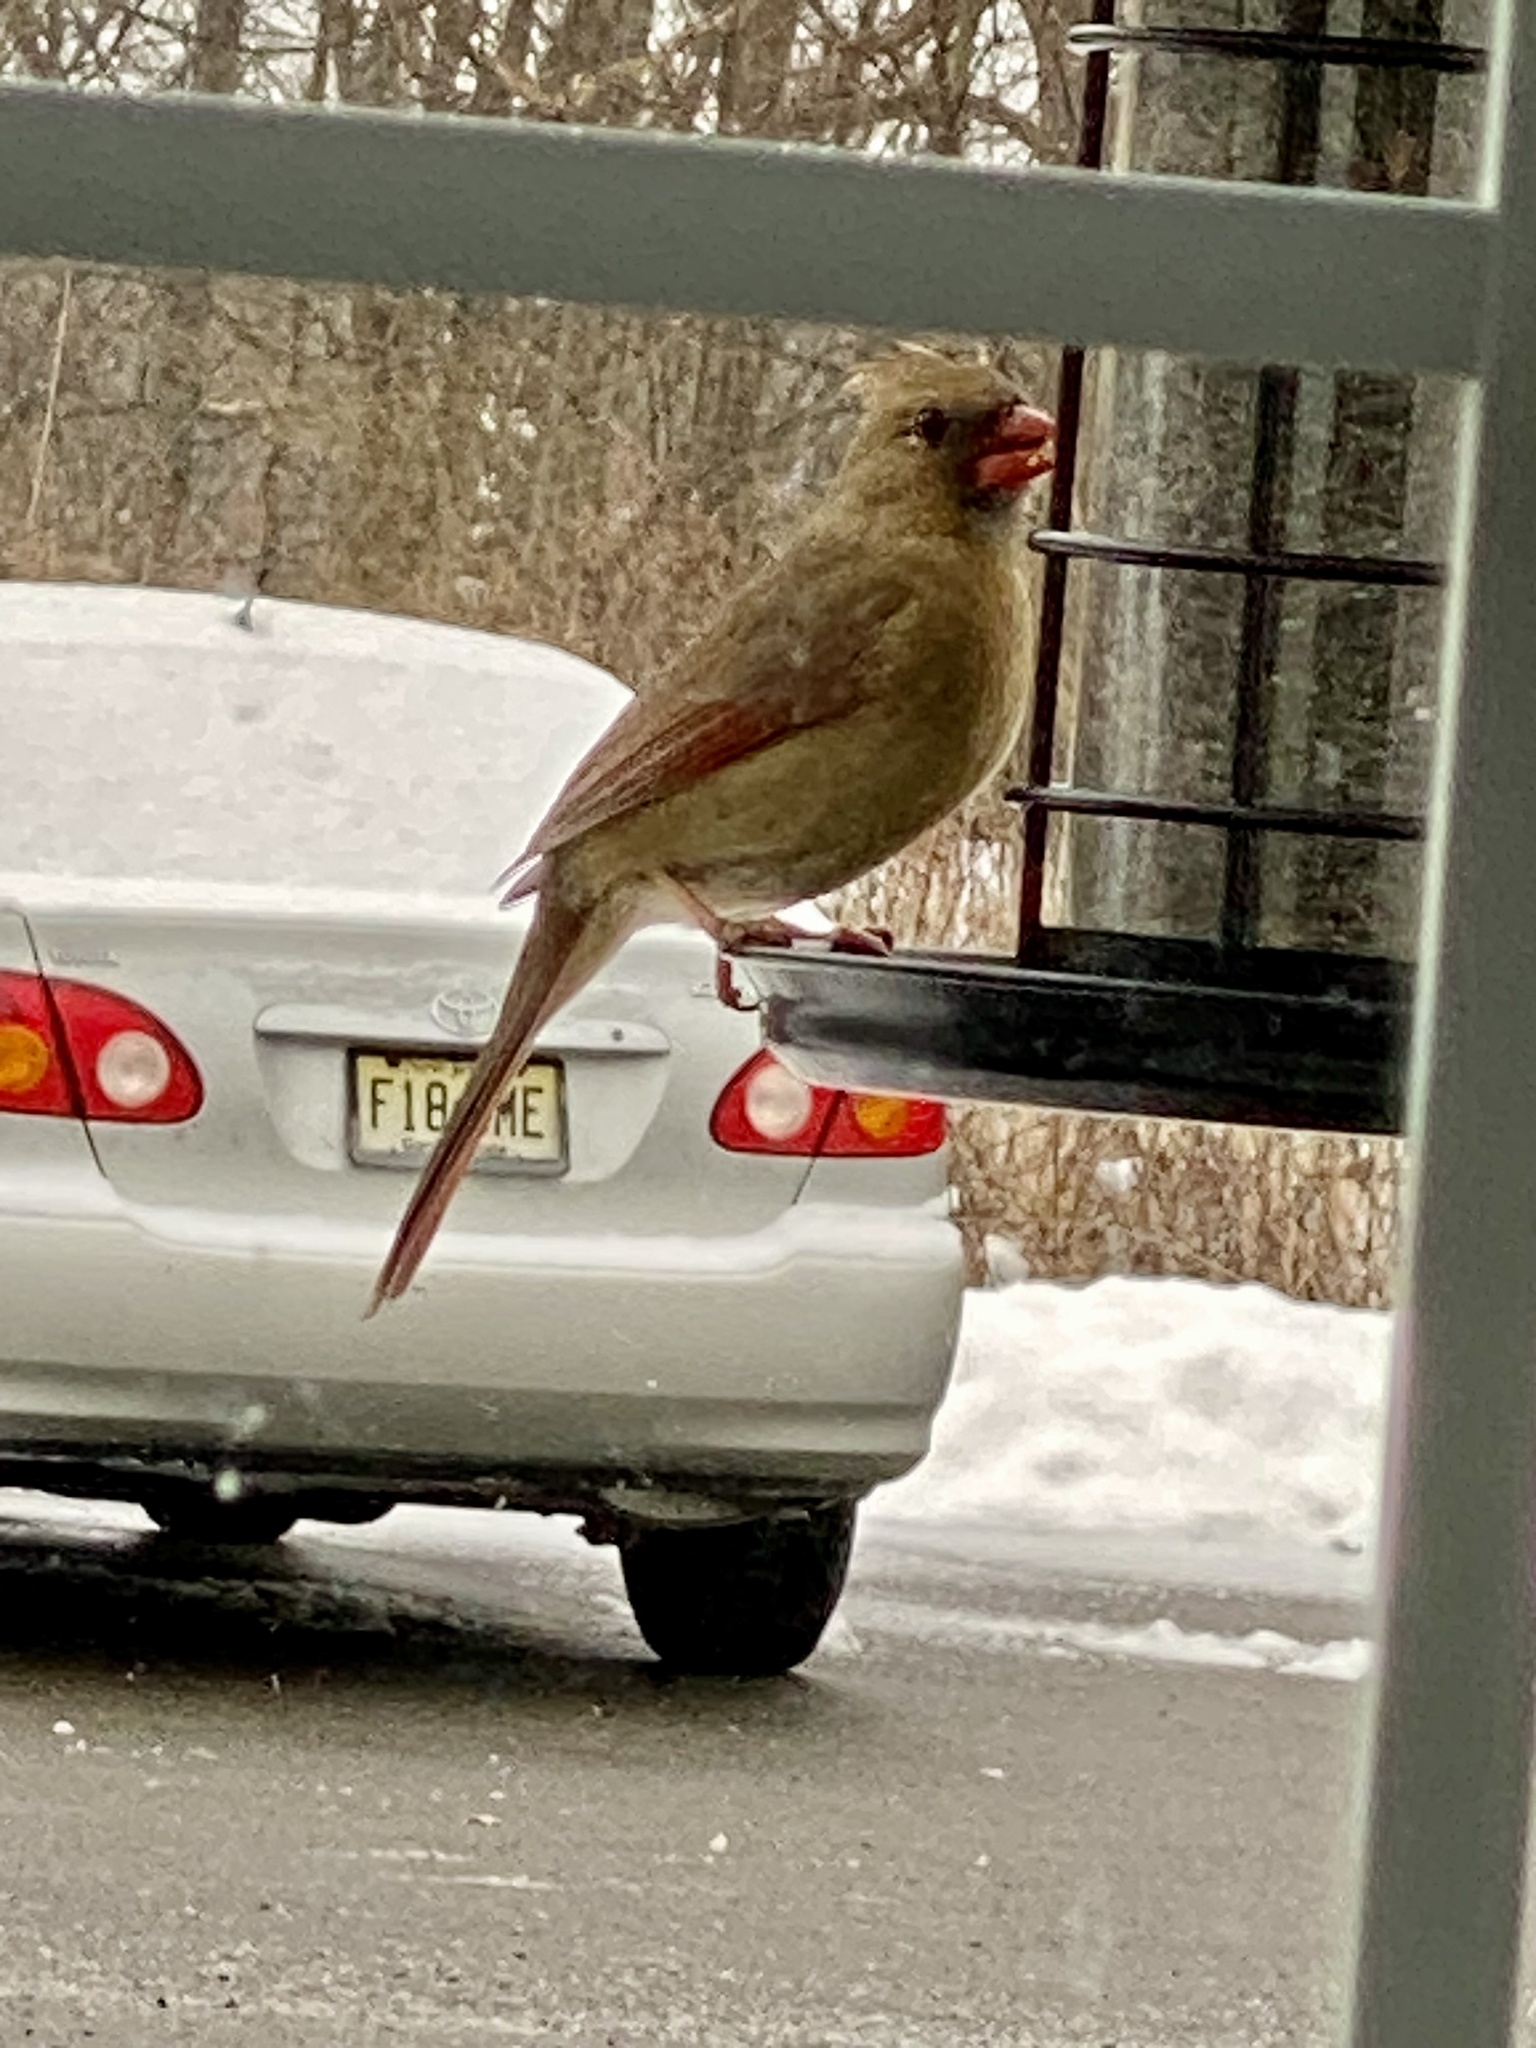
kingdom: Animalia
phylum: Chordata
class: Aves
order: Passeriformes
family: Cardinalidae
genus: Cardinalis
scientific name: Cardinalis cardinalis
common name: Northern cardinal
